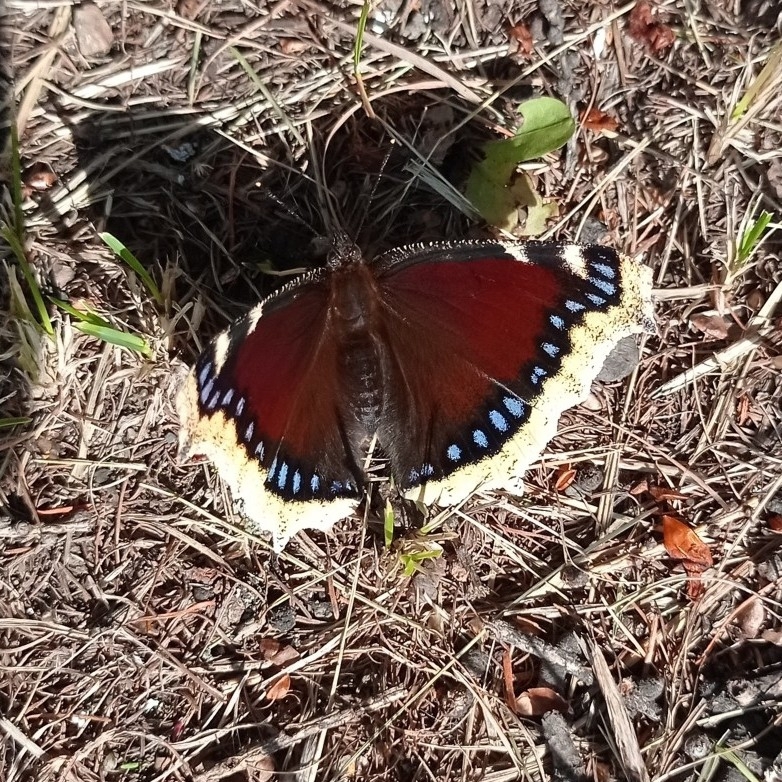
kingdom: Animalia
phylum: Arthropoda
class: Insecta
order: Lepidoptera
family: Nymphalidae
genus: Nymphalis
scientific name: Nymphalis antiopa
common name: Camberwell beauty
